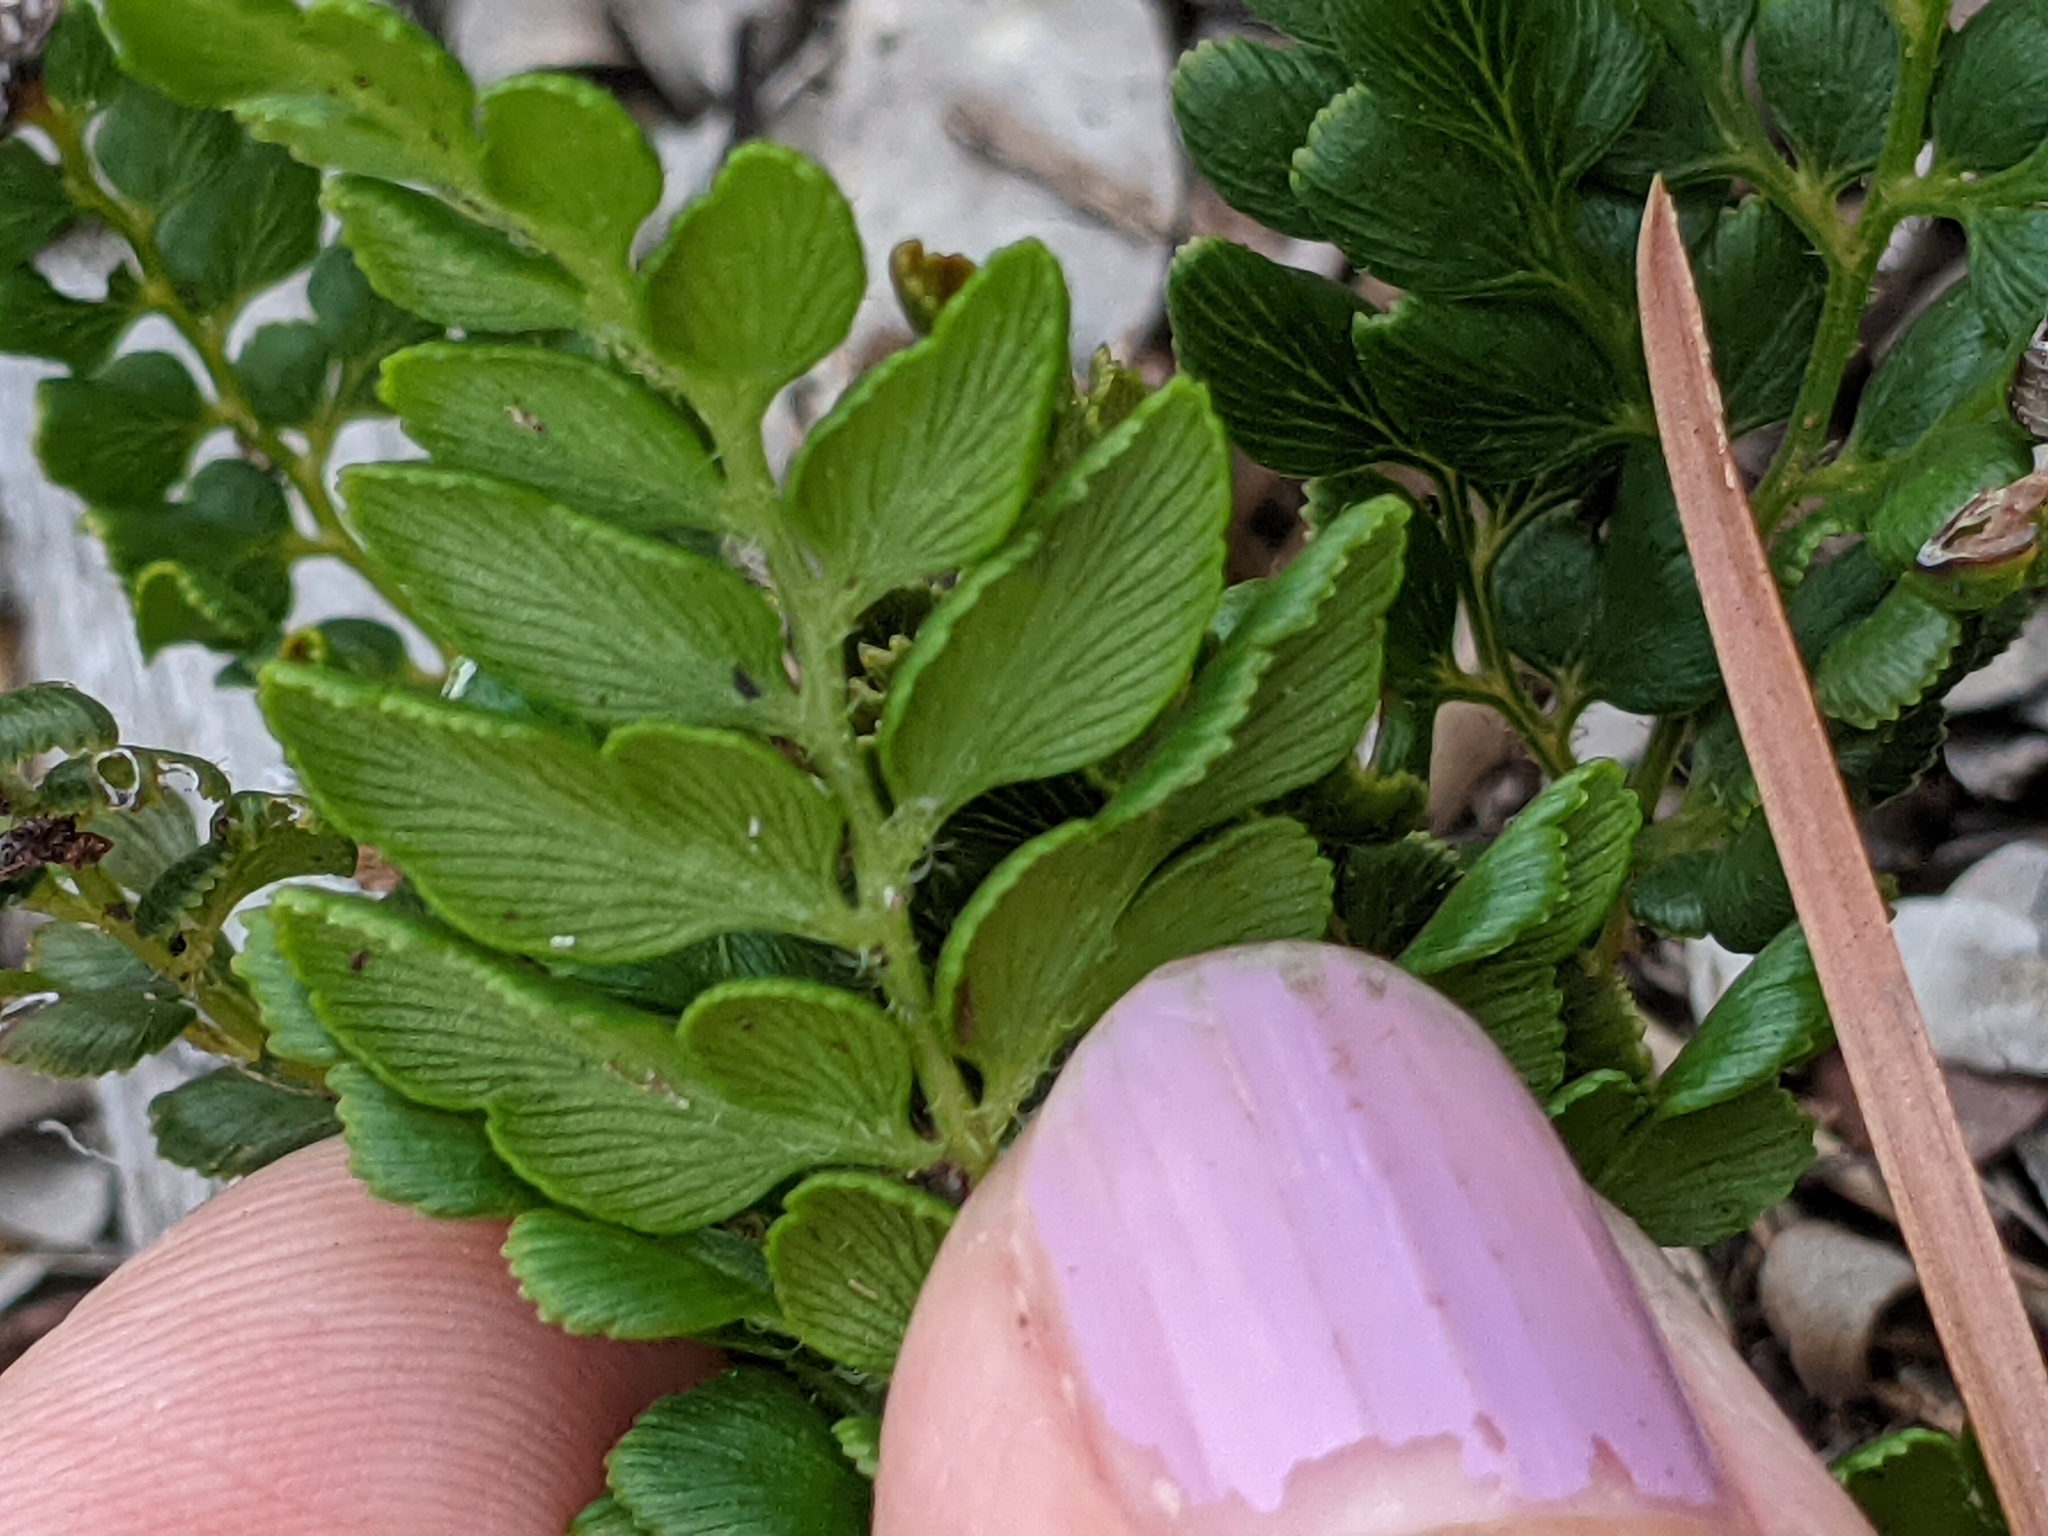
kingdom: Plantae
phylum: Tracheophyta
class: Polypodiopsida
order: Schizaeales
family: Anemiaceae
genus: Anemia
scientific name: Anemia adiantifolia
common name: Pine fern
